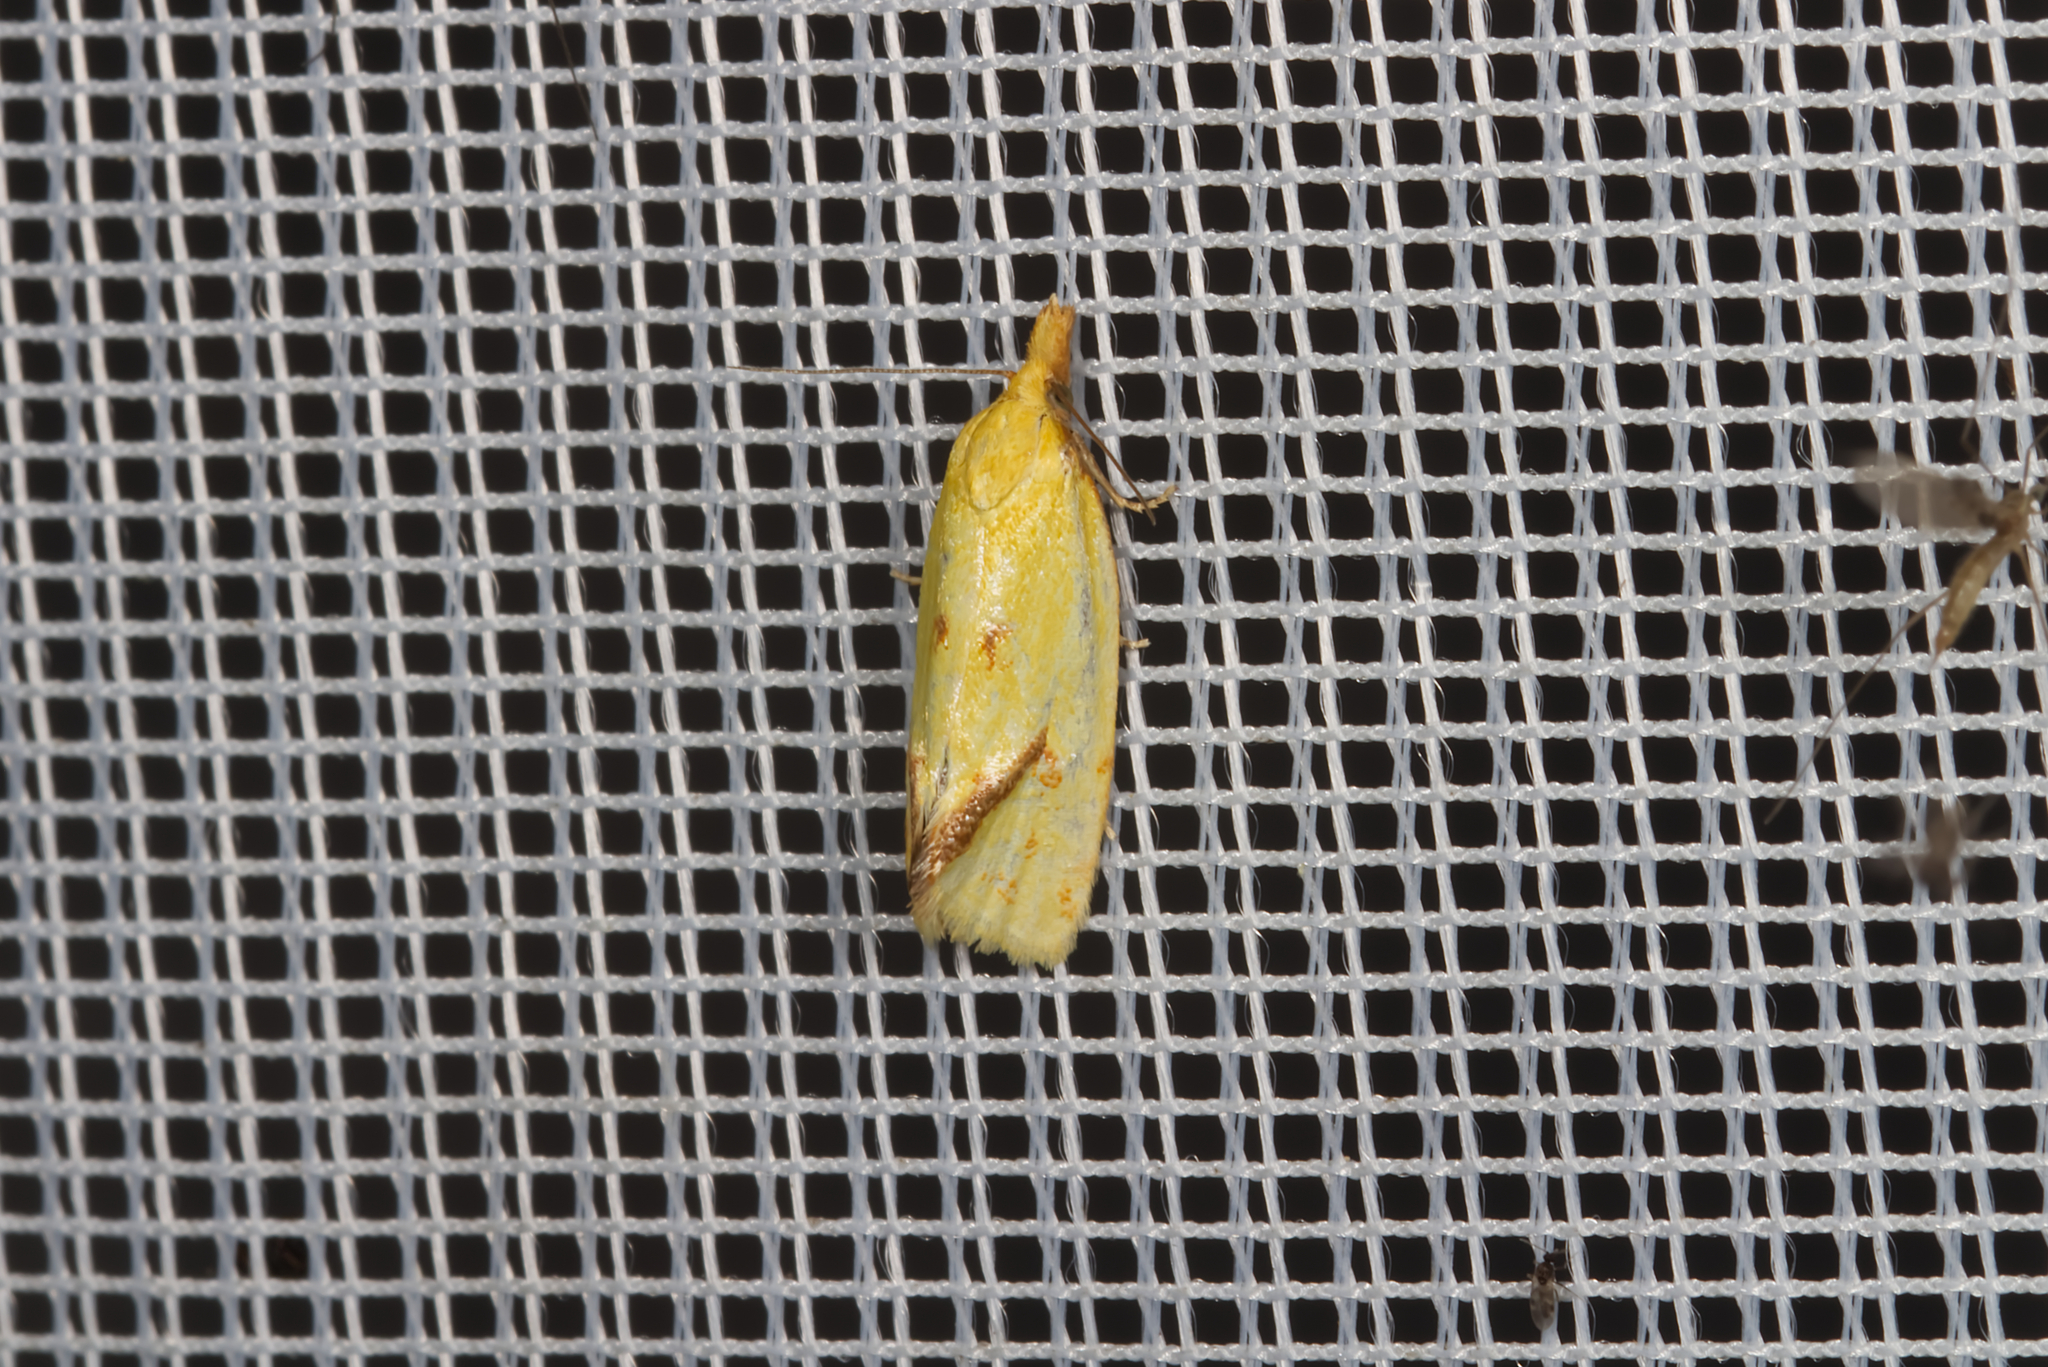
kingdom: Animalia
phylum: Arthropoda
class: Insecta
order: Lepidoptera
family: Tortricidae
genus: Agapeta
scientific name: Agapeta hamana
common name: Common yellow conch
